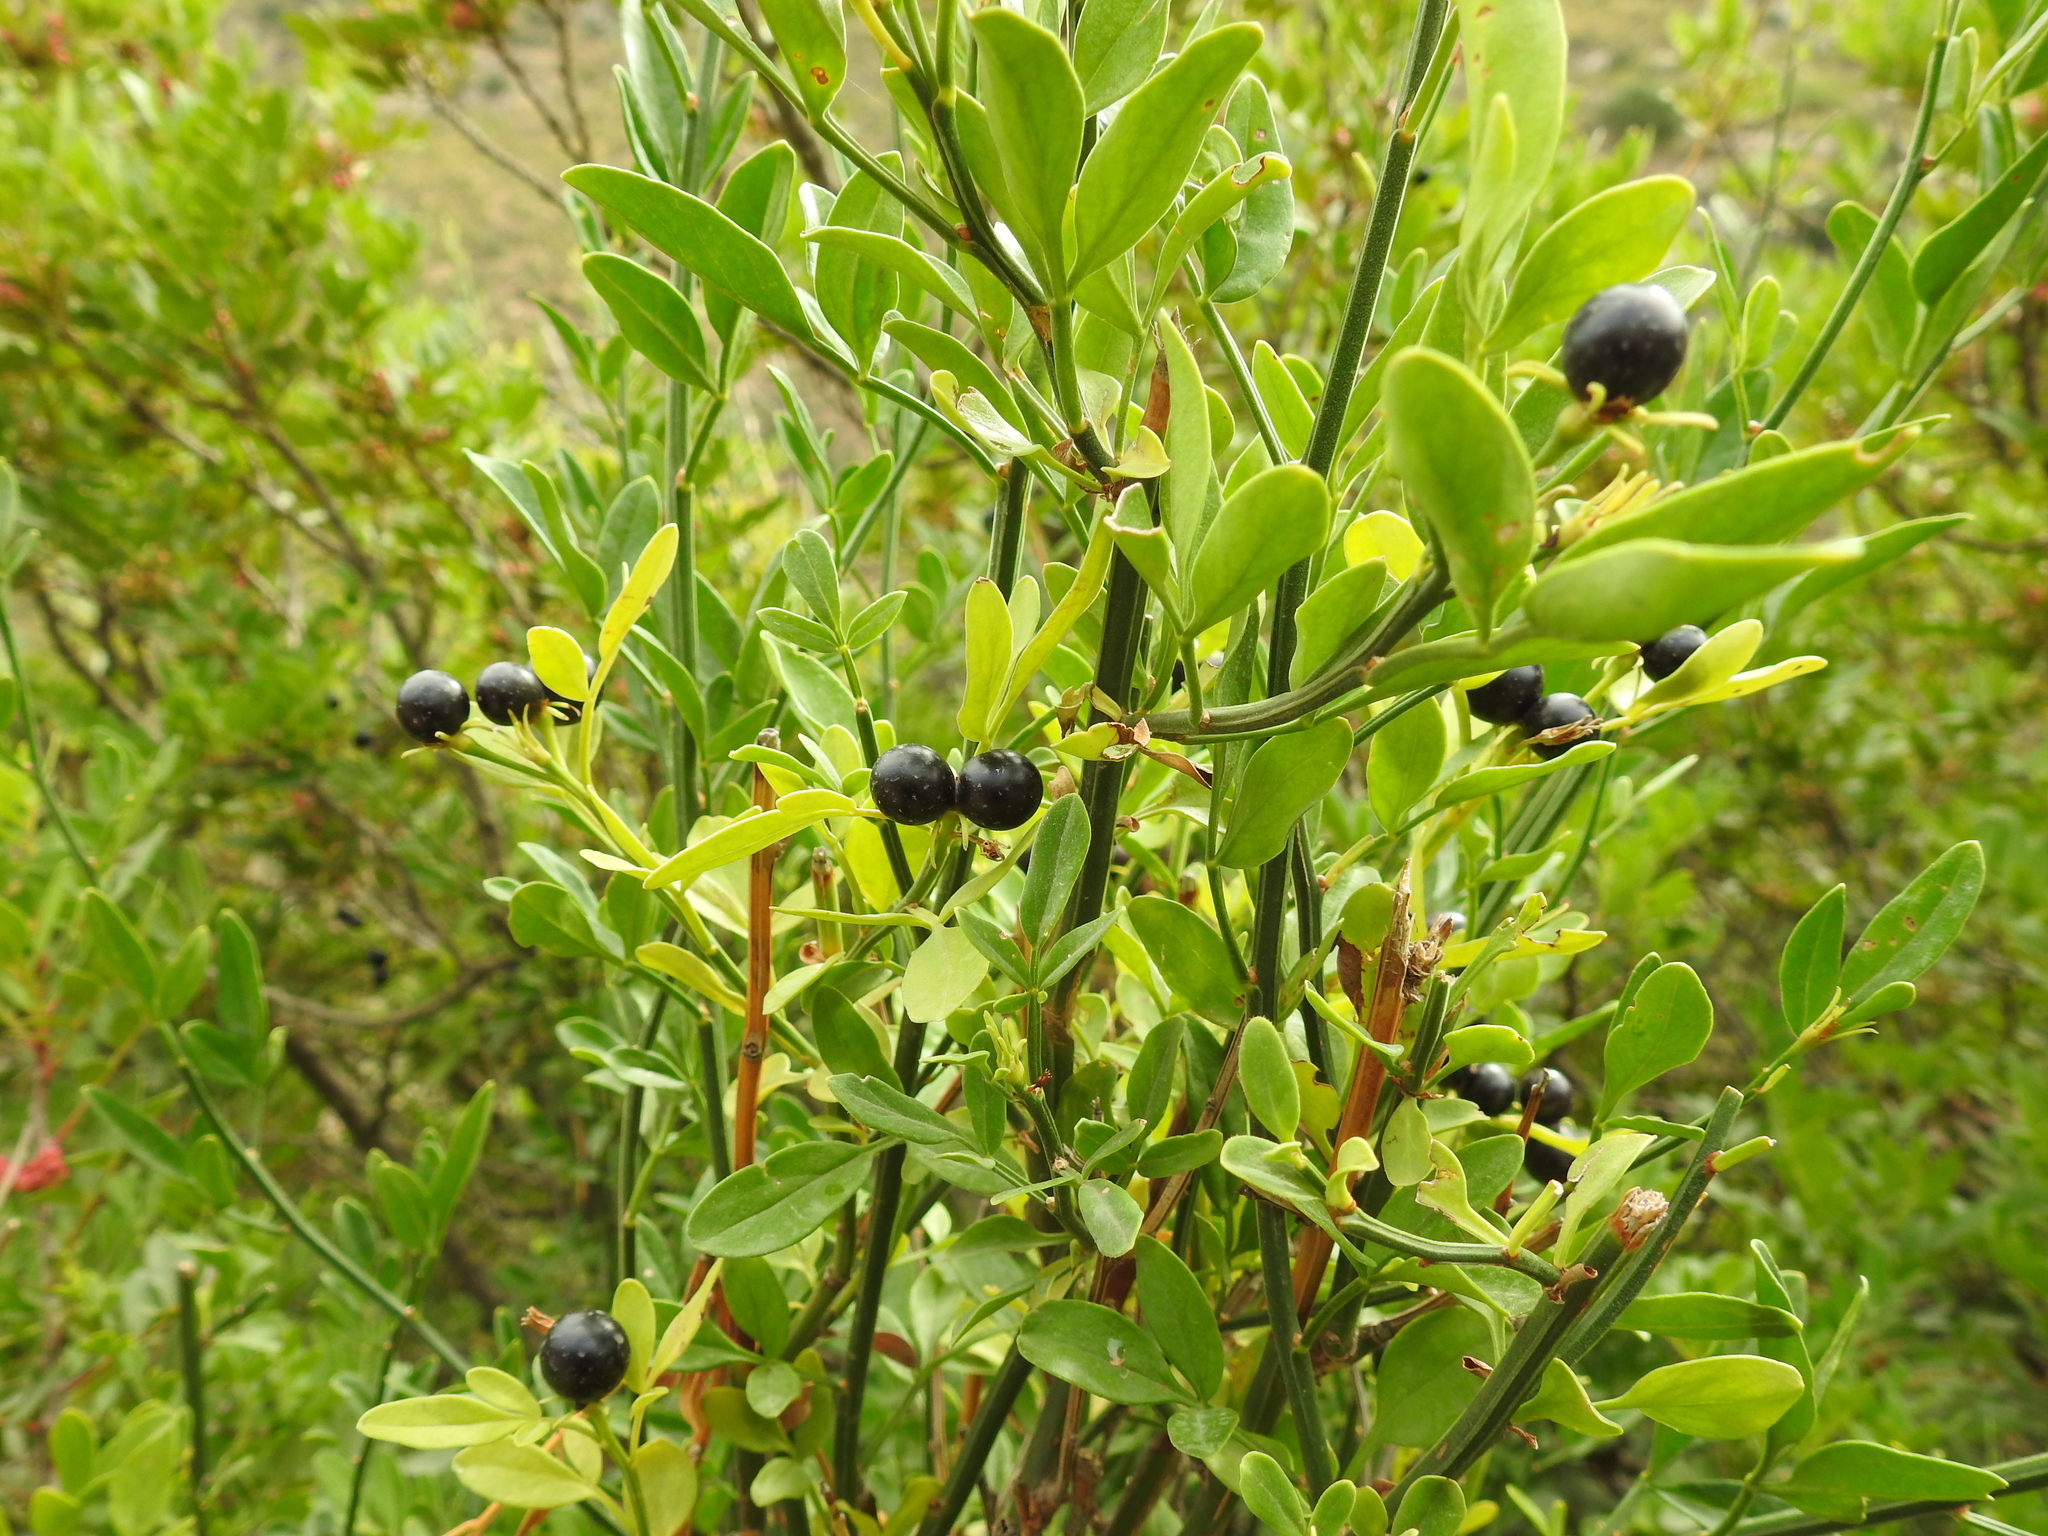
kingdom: Plantae
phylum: Tracheophyta
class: Magnoliopsida
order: Lamiales
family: Oleaceae
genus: Chrysojasminum
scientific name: Chrysojasminum fruticans
